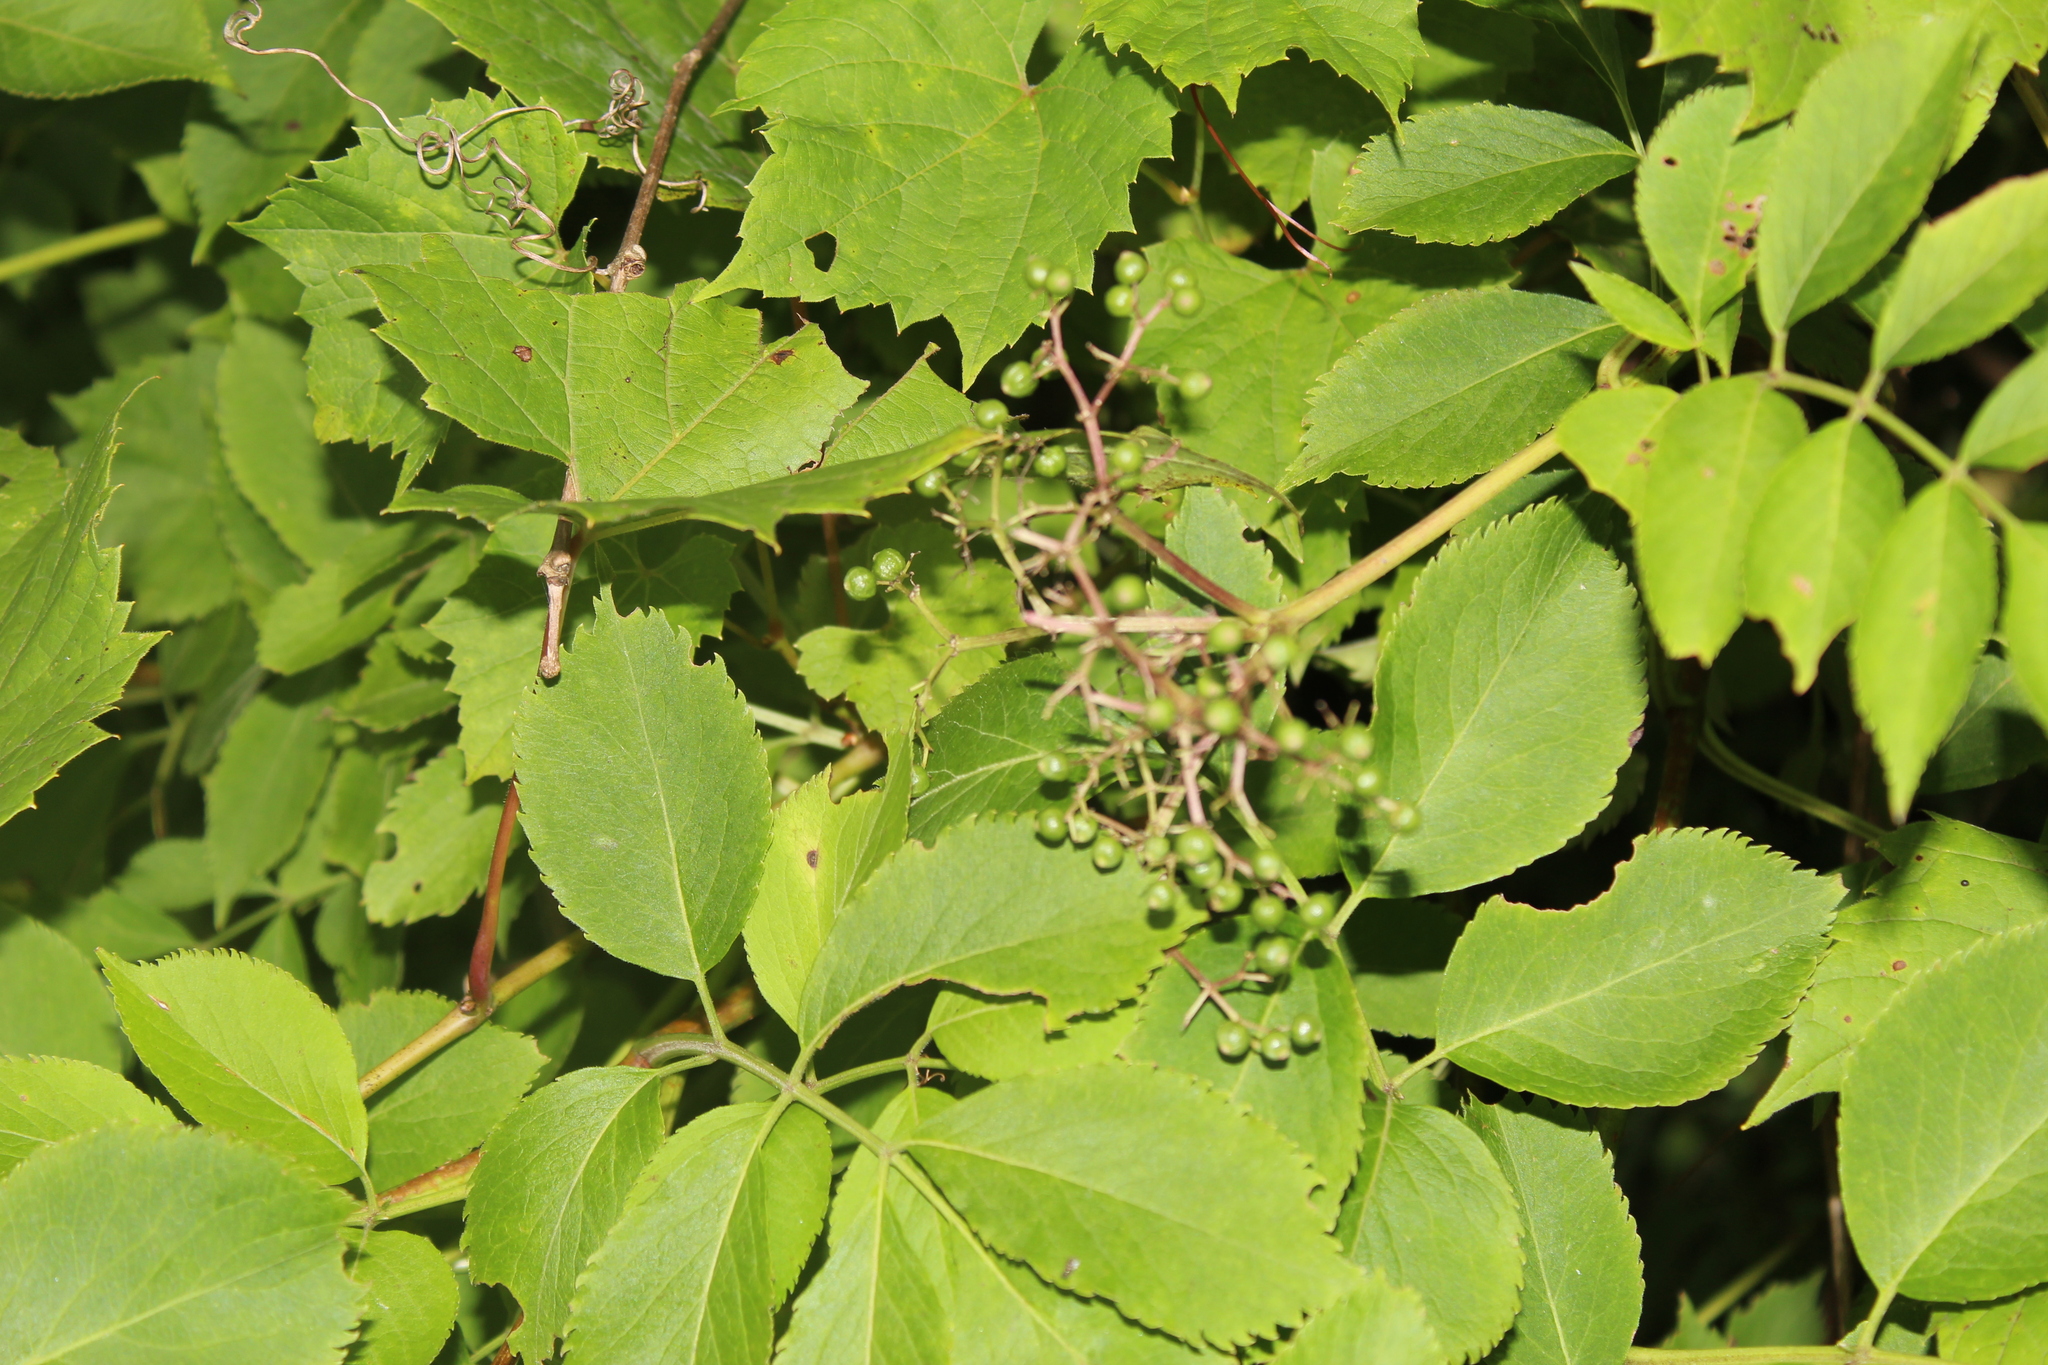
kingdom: Plantae
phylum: Tracheophyta
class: Magnoliopsida
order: Dipsacales
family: Viburnaceae
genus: Sambucus
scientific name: Sambucus canadensis
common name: American elder
